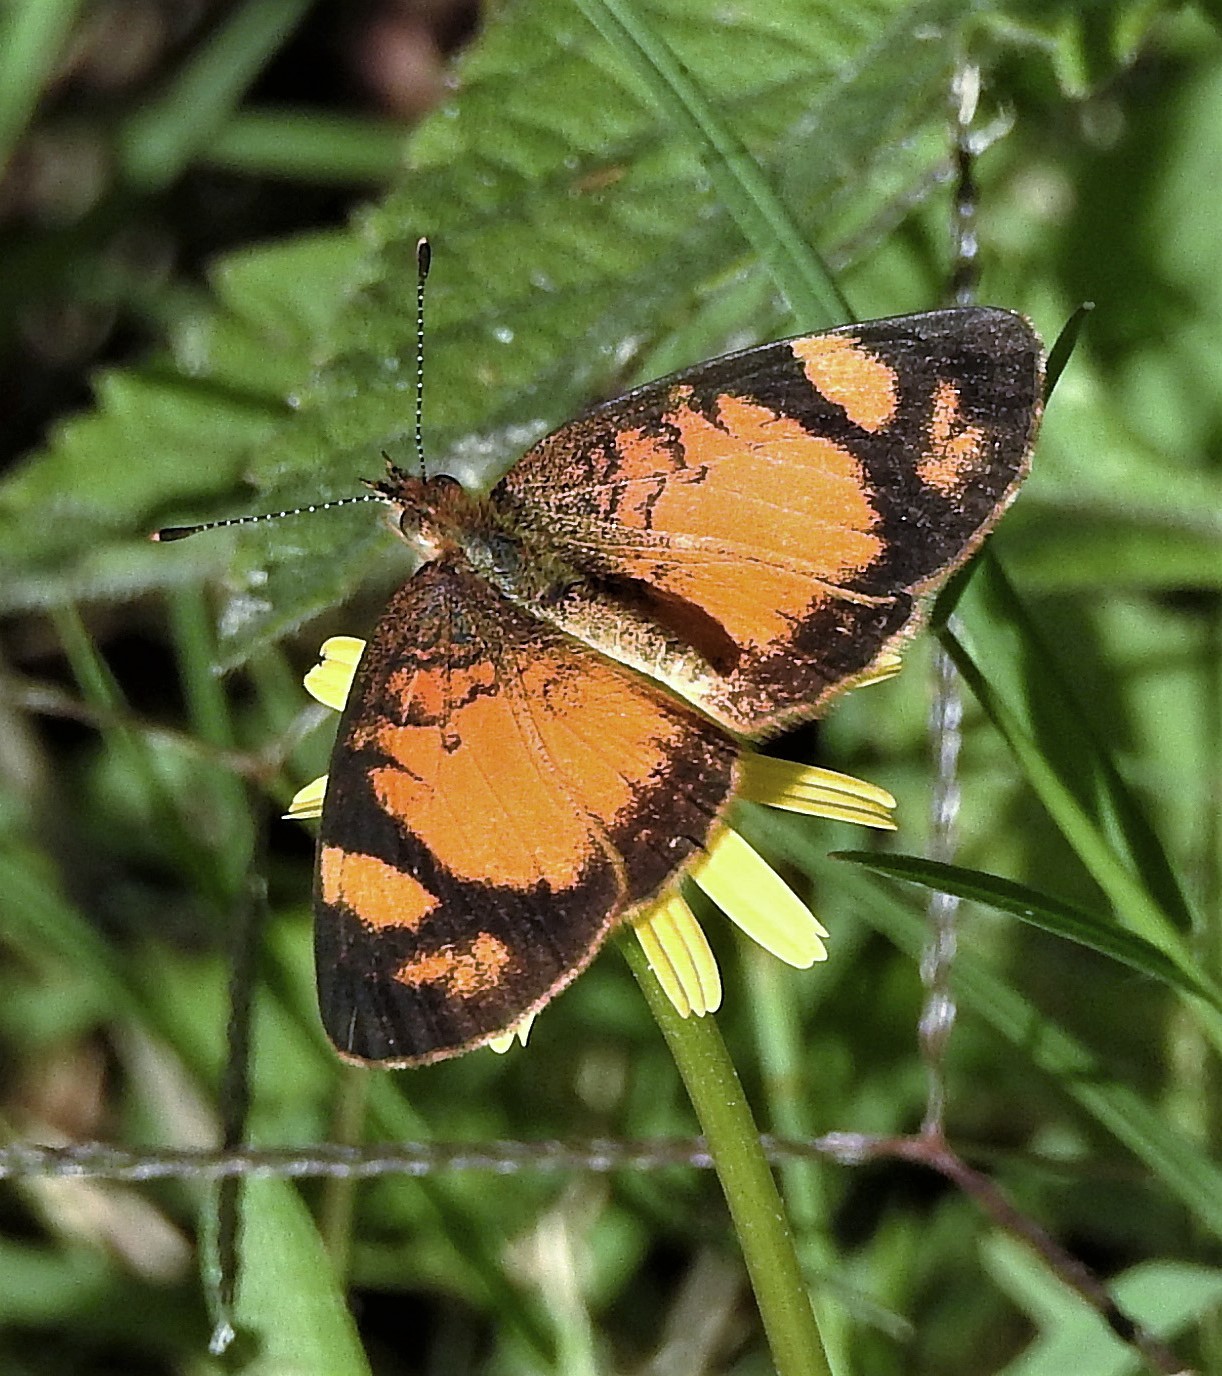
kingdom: Animalia
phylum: Arthropoda
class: Insecta
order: Lepidoptera
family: Nymphalidae
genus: Tegosa
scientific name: Tegosa claudina
